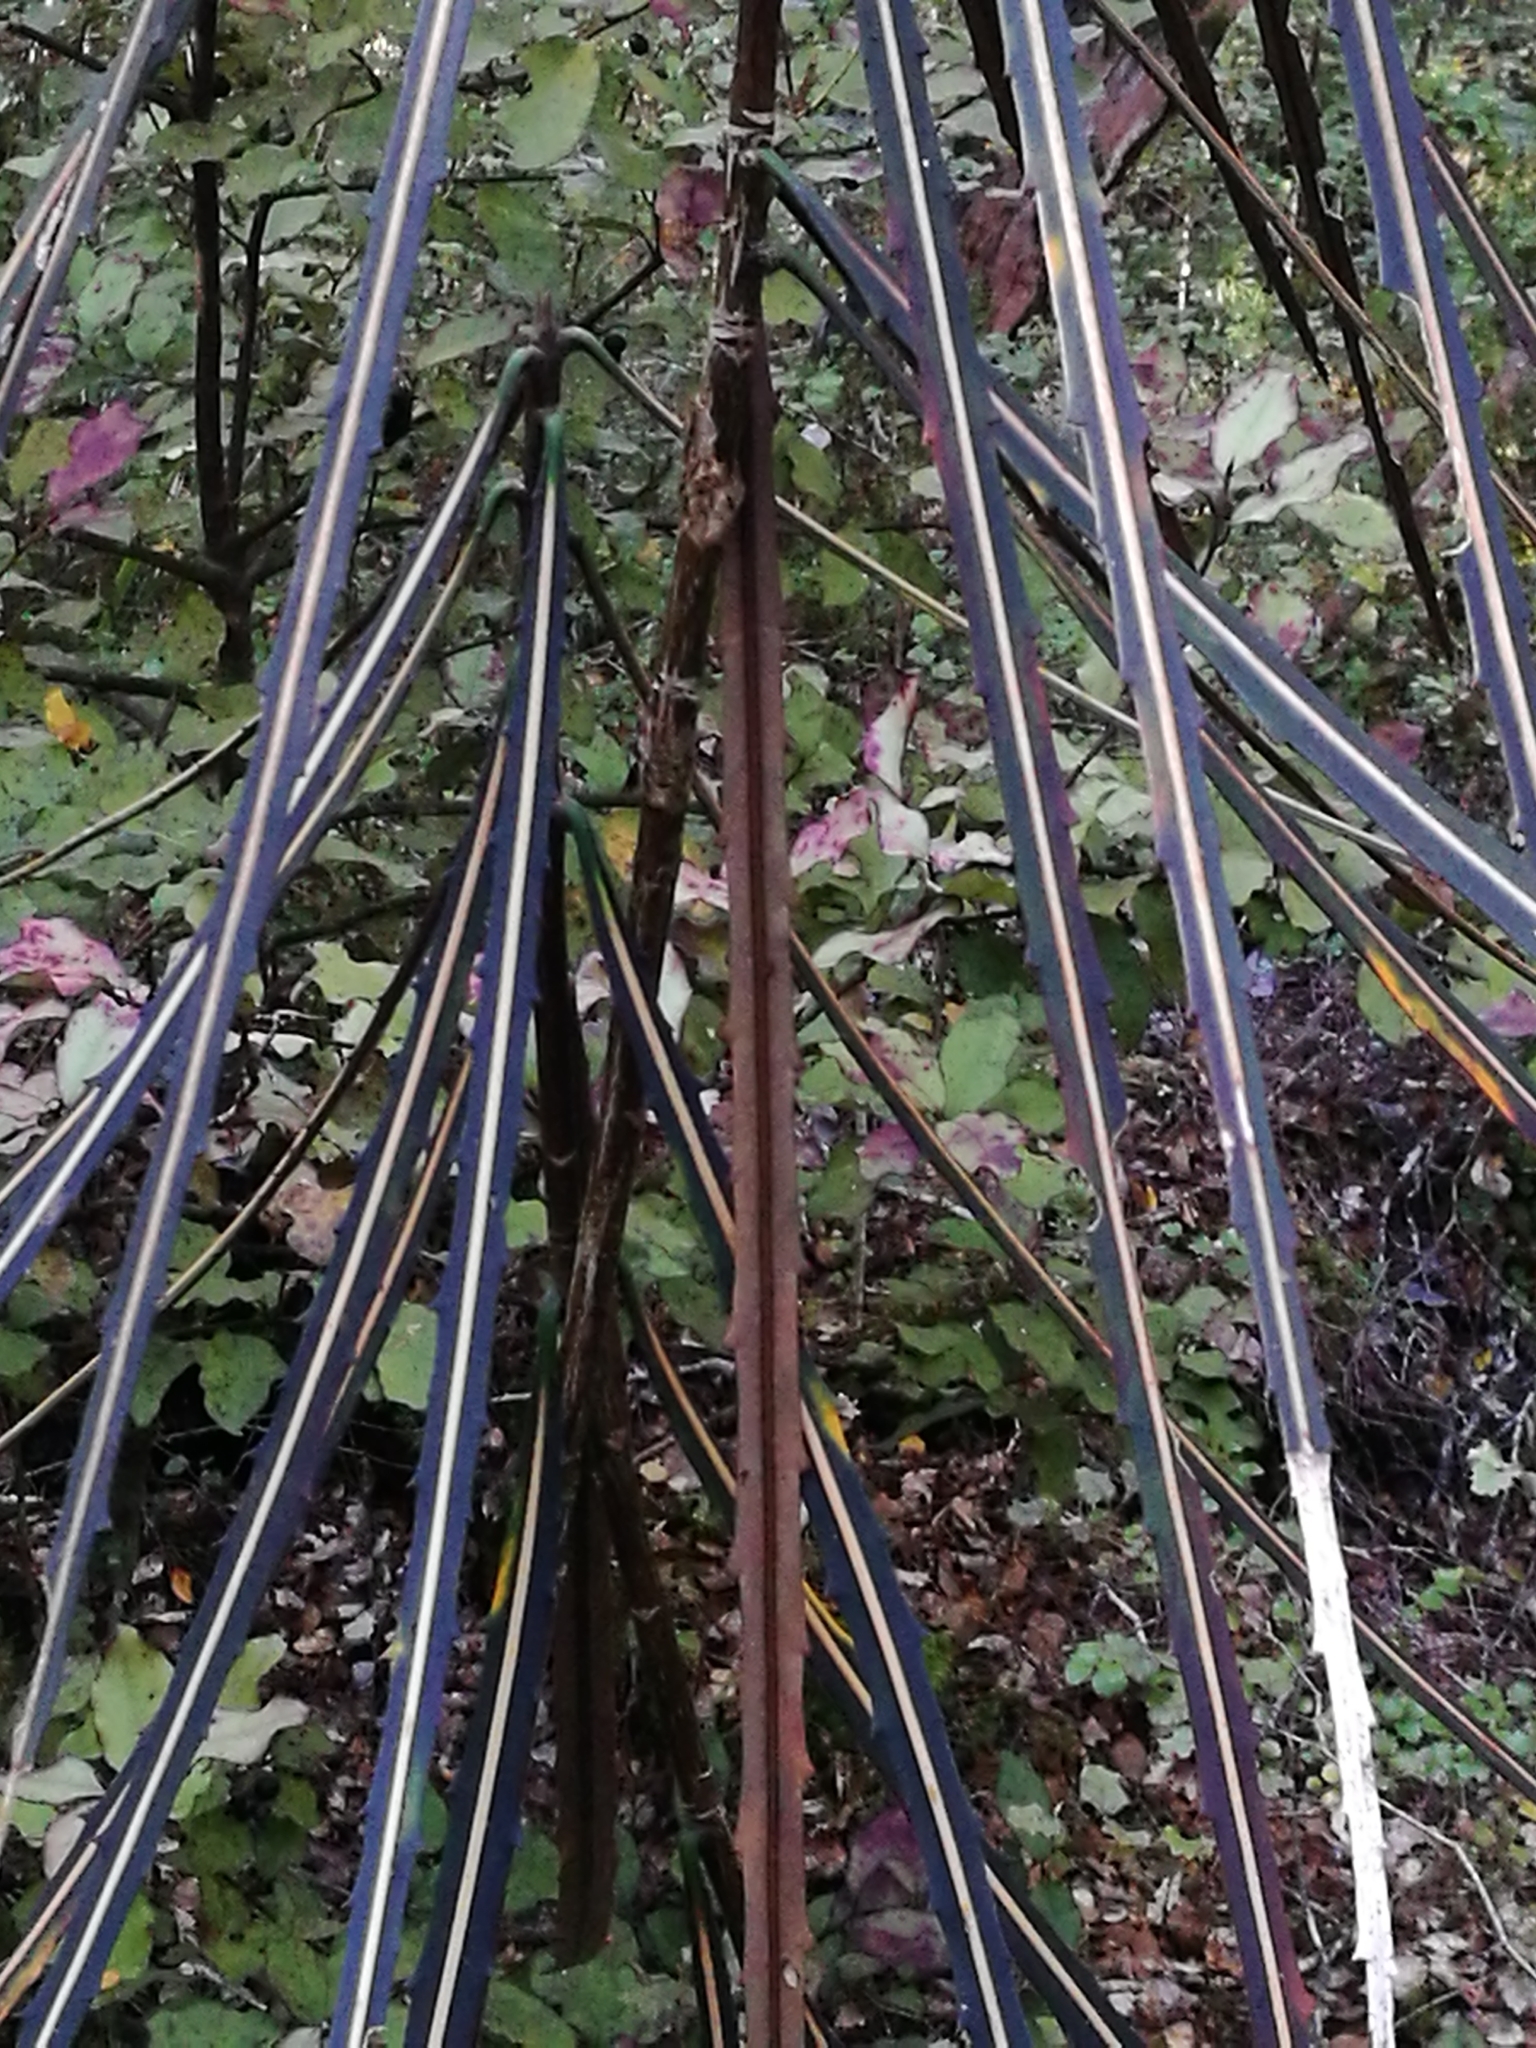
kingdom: Plantae
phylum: Tracheophyta
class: Magnoliopsida
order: Apiales
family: Araliaceae
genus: Pseudopanax
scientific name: Pseudopanax crassifolius
